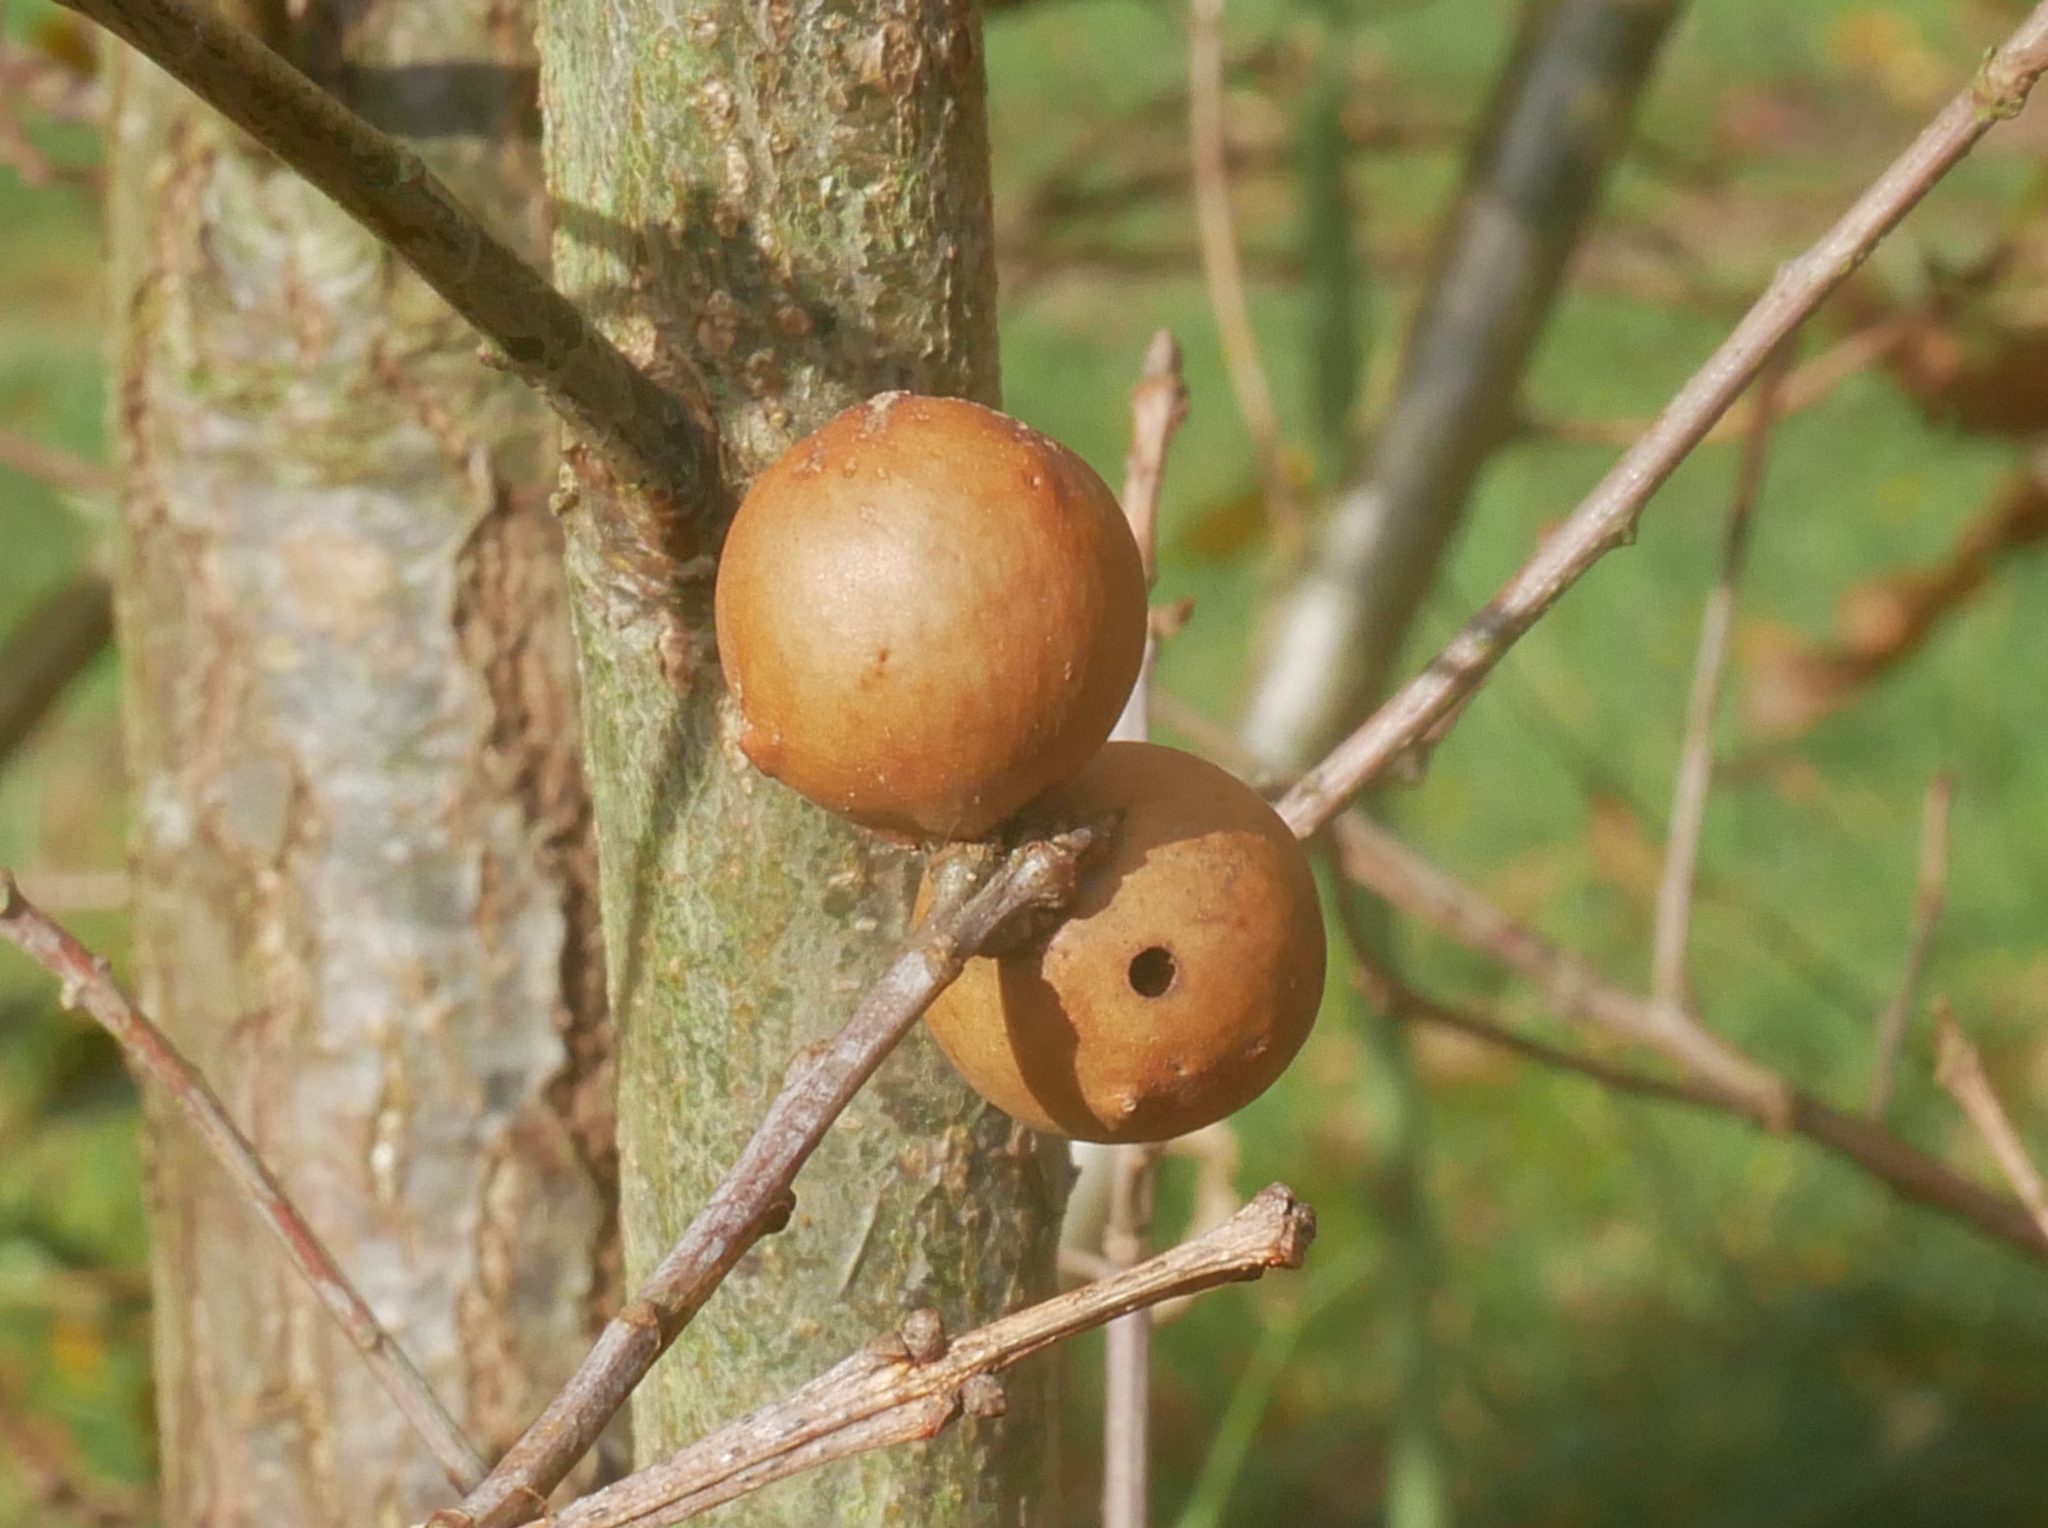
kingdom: Animalia
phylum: Arthropoda
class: Insecta
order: Hymenoptera
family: Cynipidae
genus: Andricus
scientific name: Andricus kollari
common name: Marble gall
